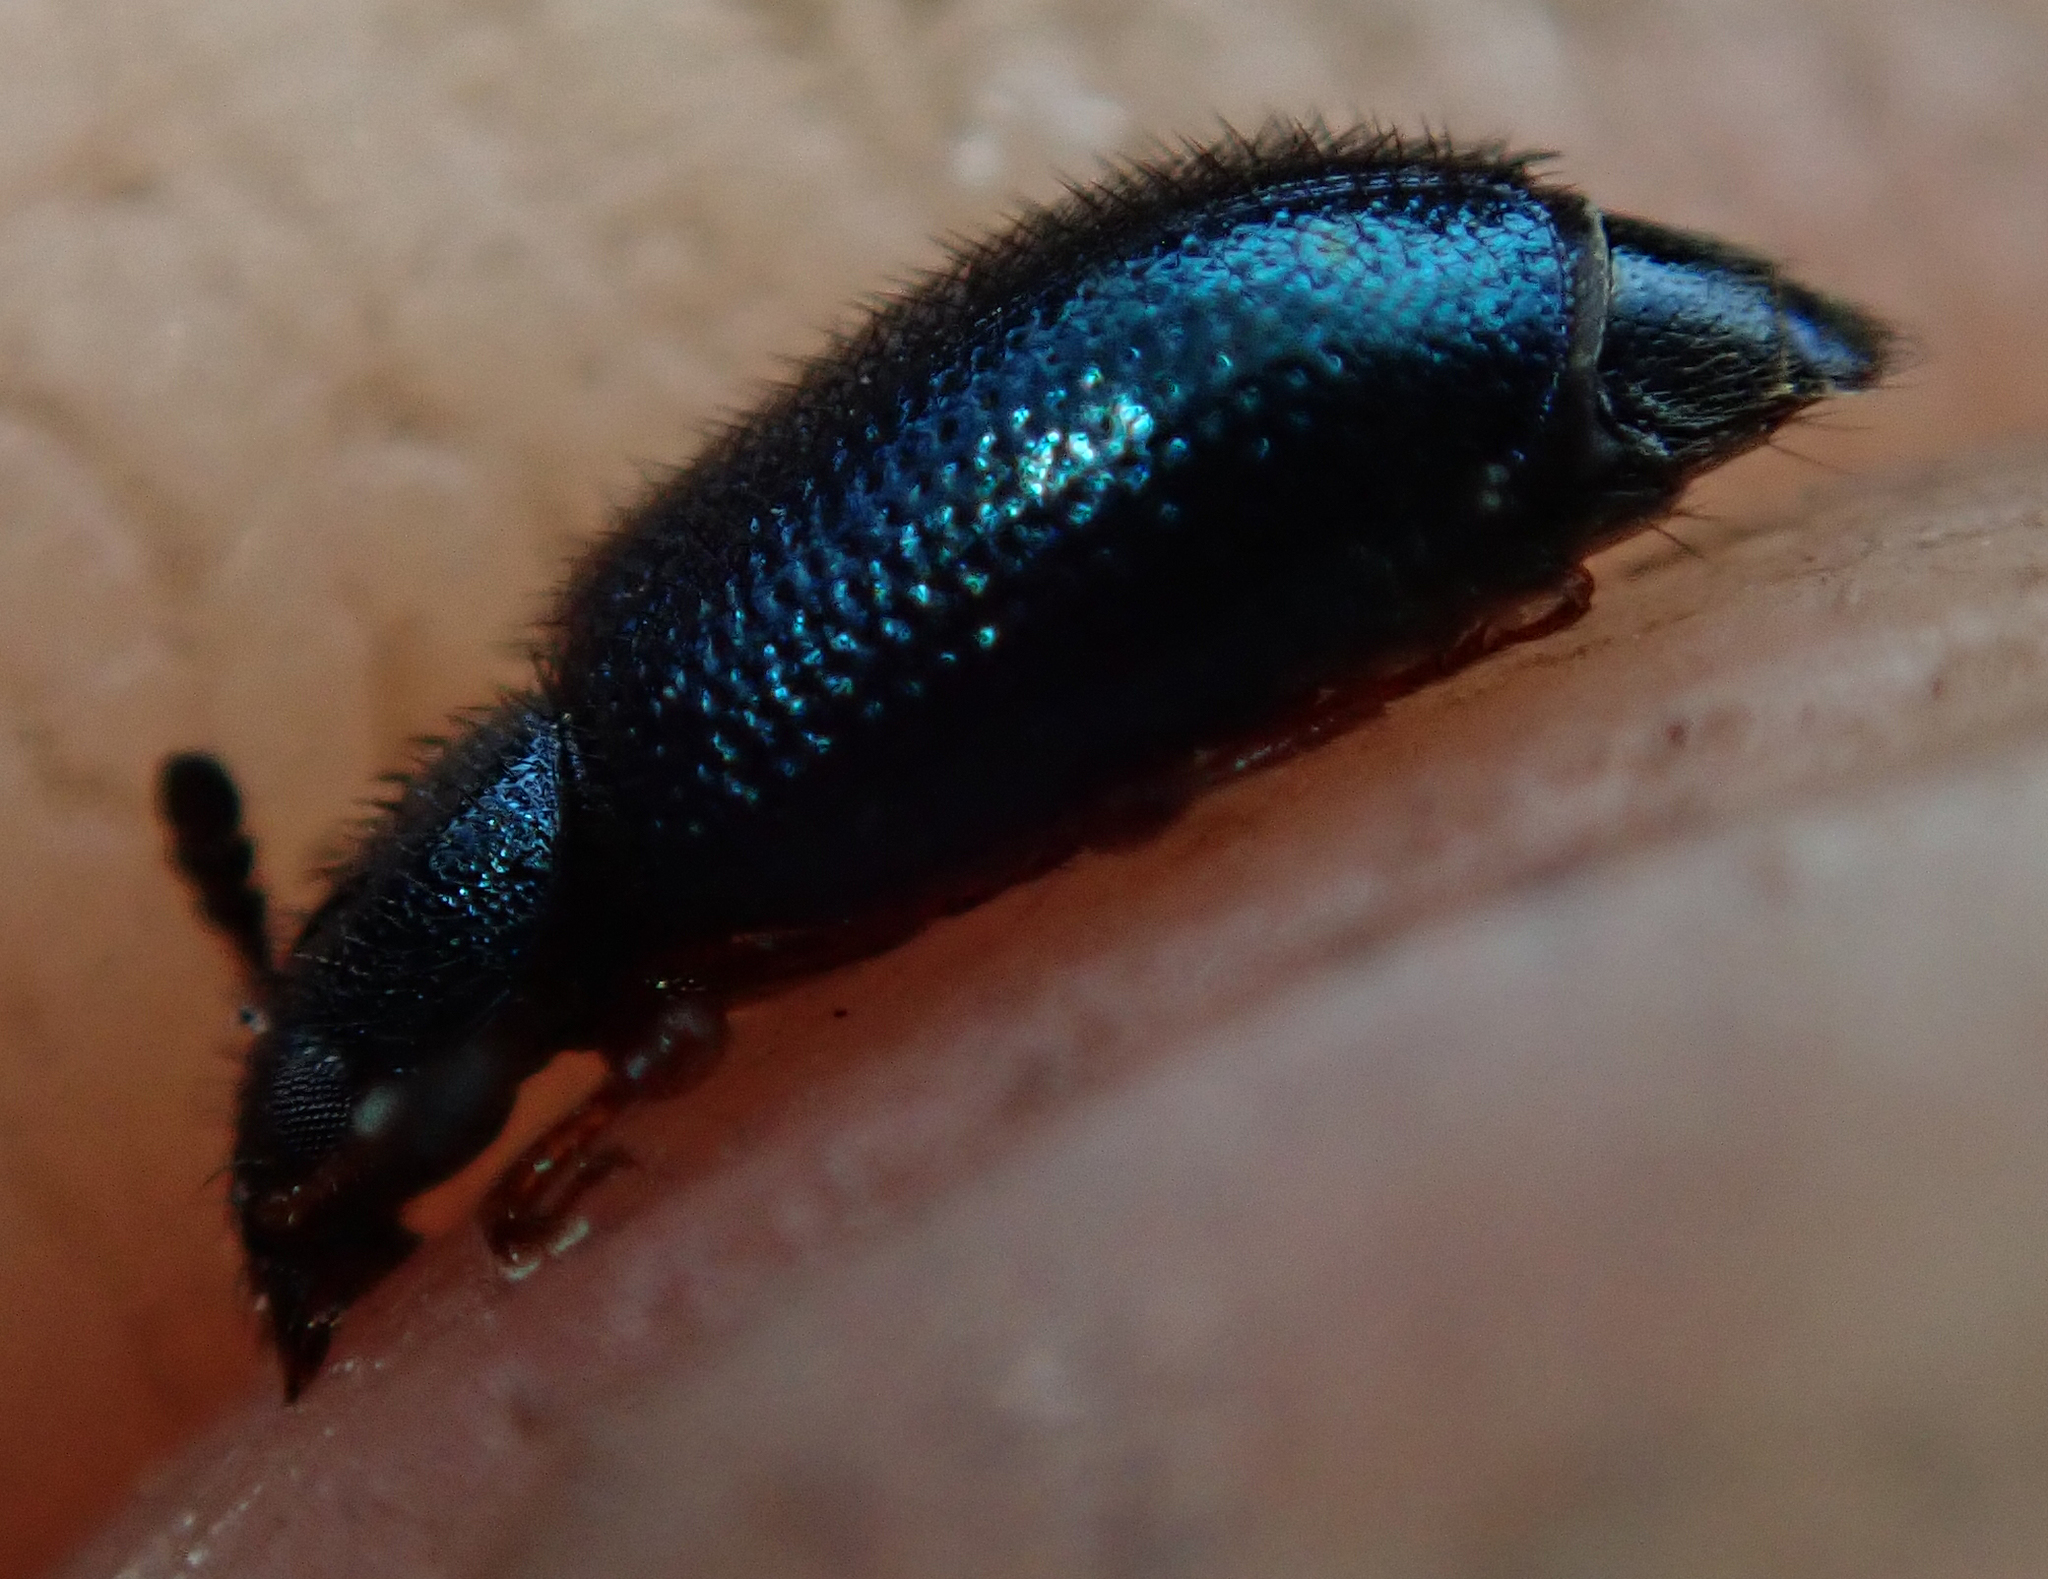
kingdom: Animalia
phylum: Arthropoda
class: Insecta
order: Coleoptera
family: Cleridae
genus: Necrobia
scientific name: Necrobia rufipes
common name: Red-legged ham beetle
